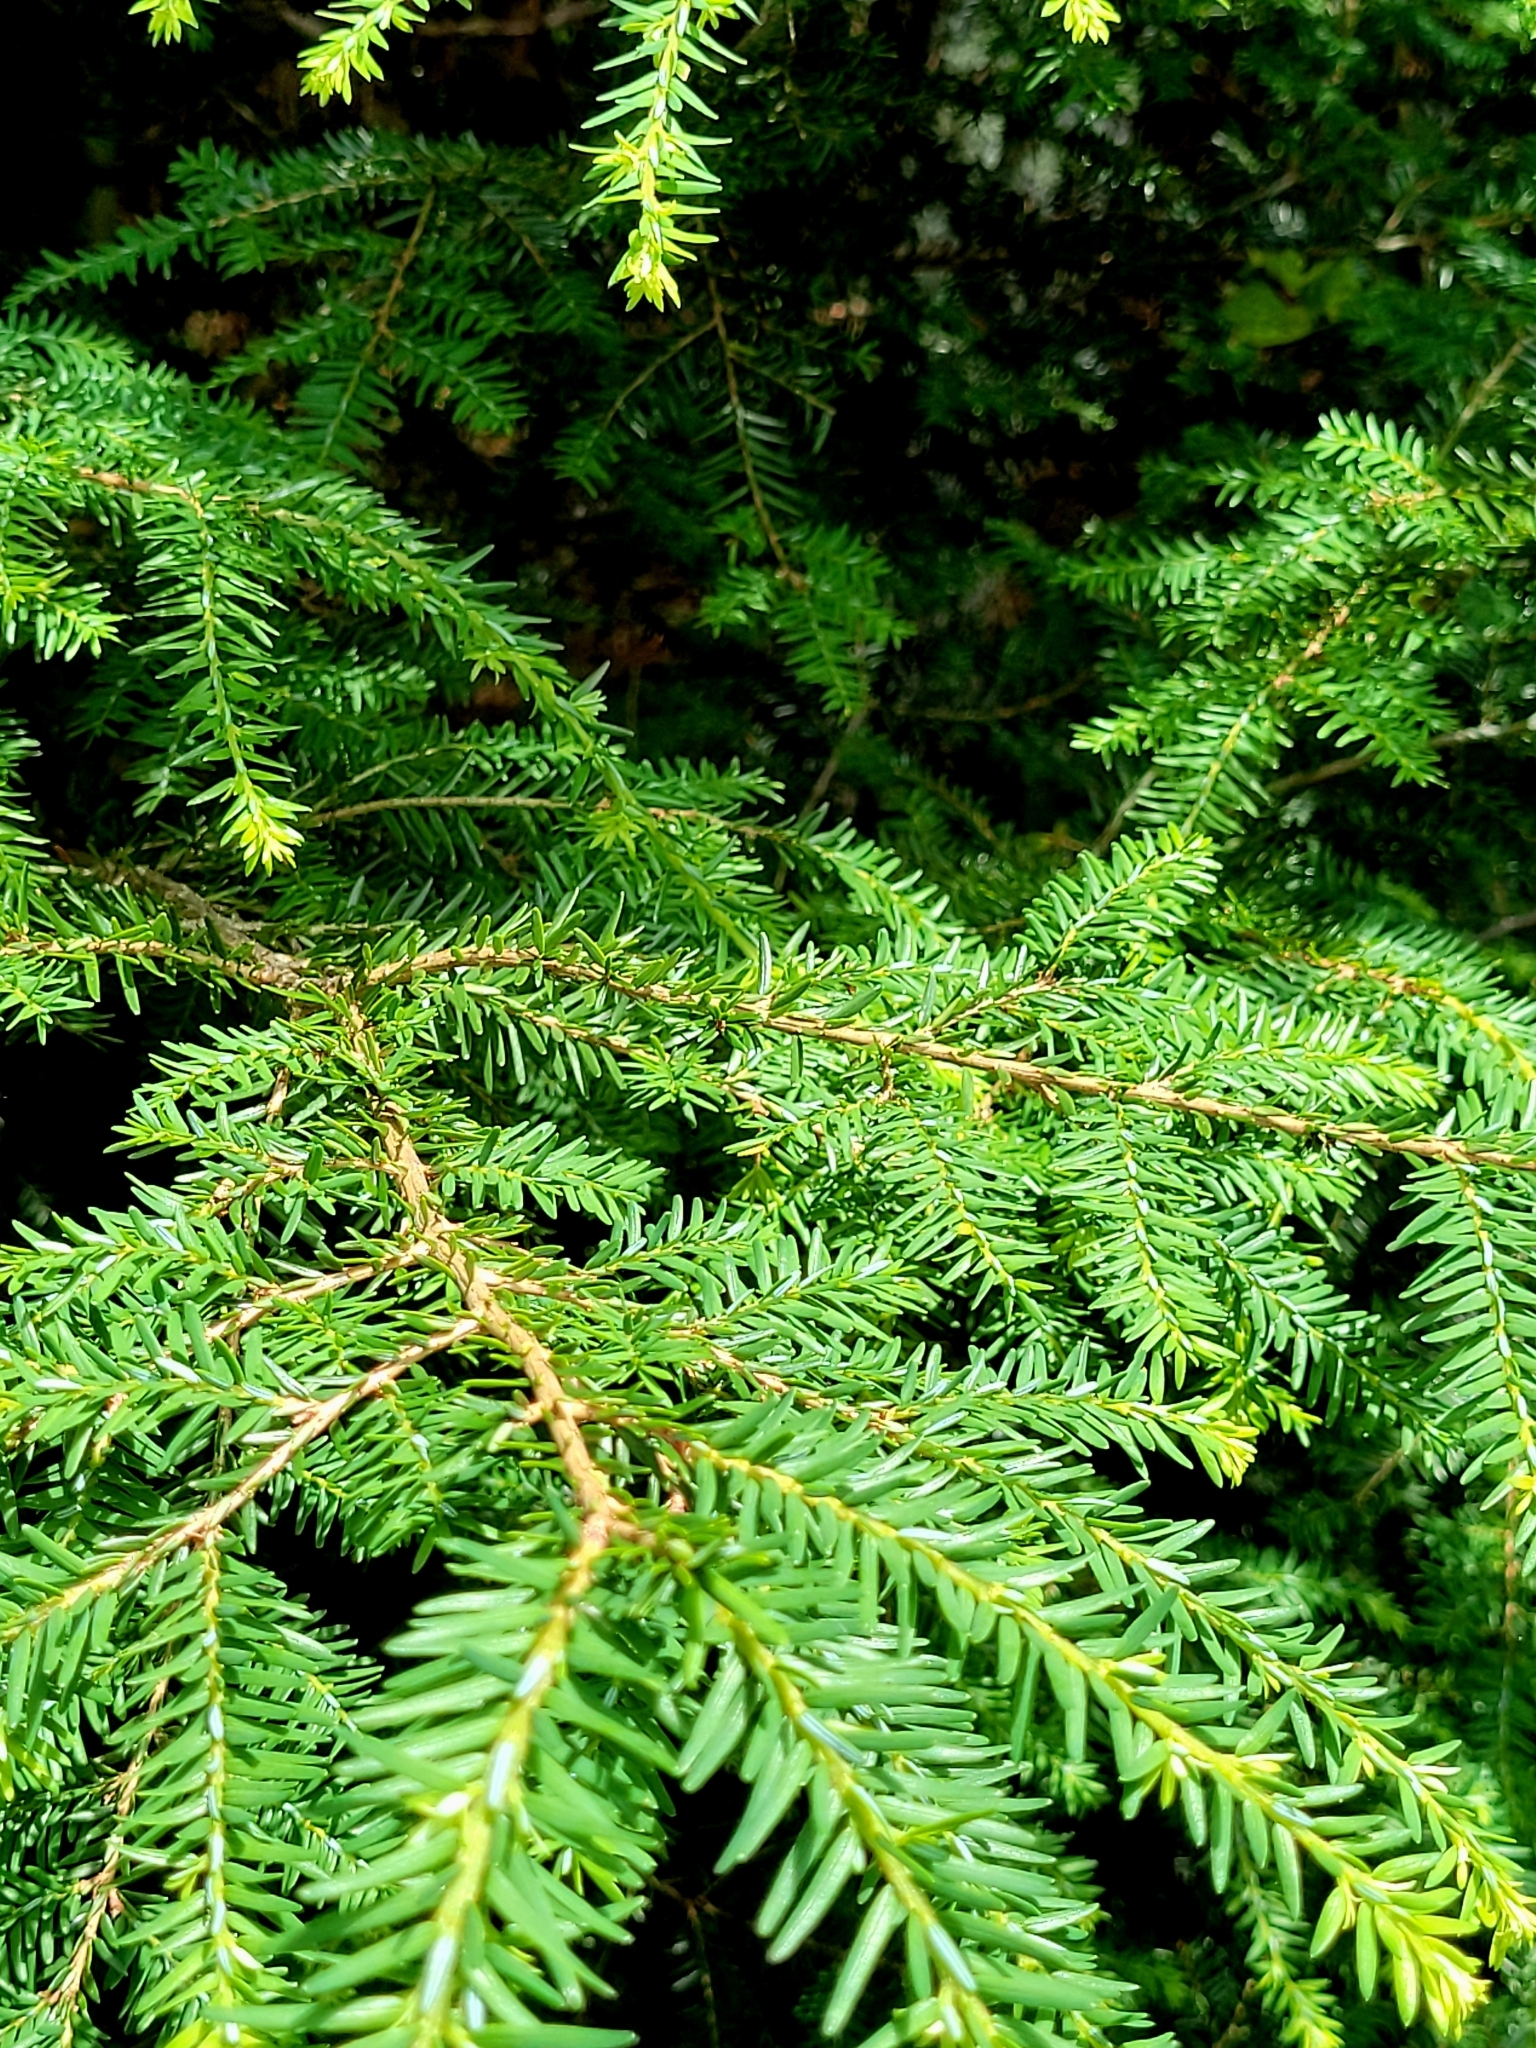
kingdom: Plantae
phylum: Tracheophyta
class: Pinopsida
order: Pinales
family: Pinaceae
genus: Tsuga
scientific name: Tsuga canadensis
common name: Eastern hemlock
